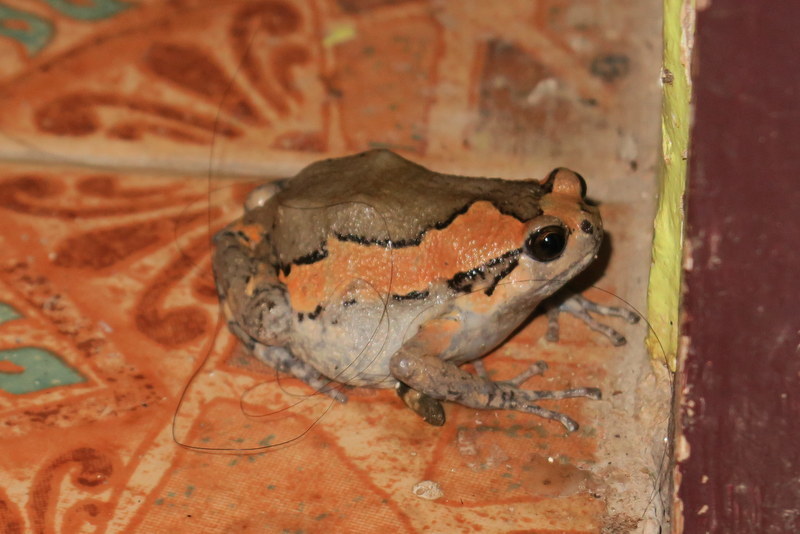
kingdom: Animalia
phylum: Chordata
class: Amphibia
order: Anura
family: Microhylidae
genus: Kaloula
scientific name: Kaloula pulchra
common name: Common,banded bullfrog
